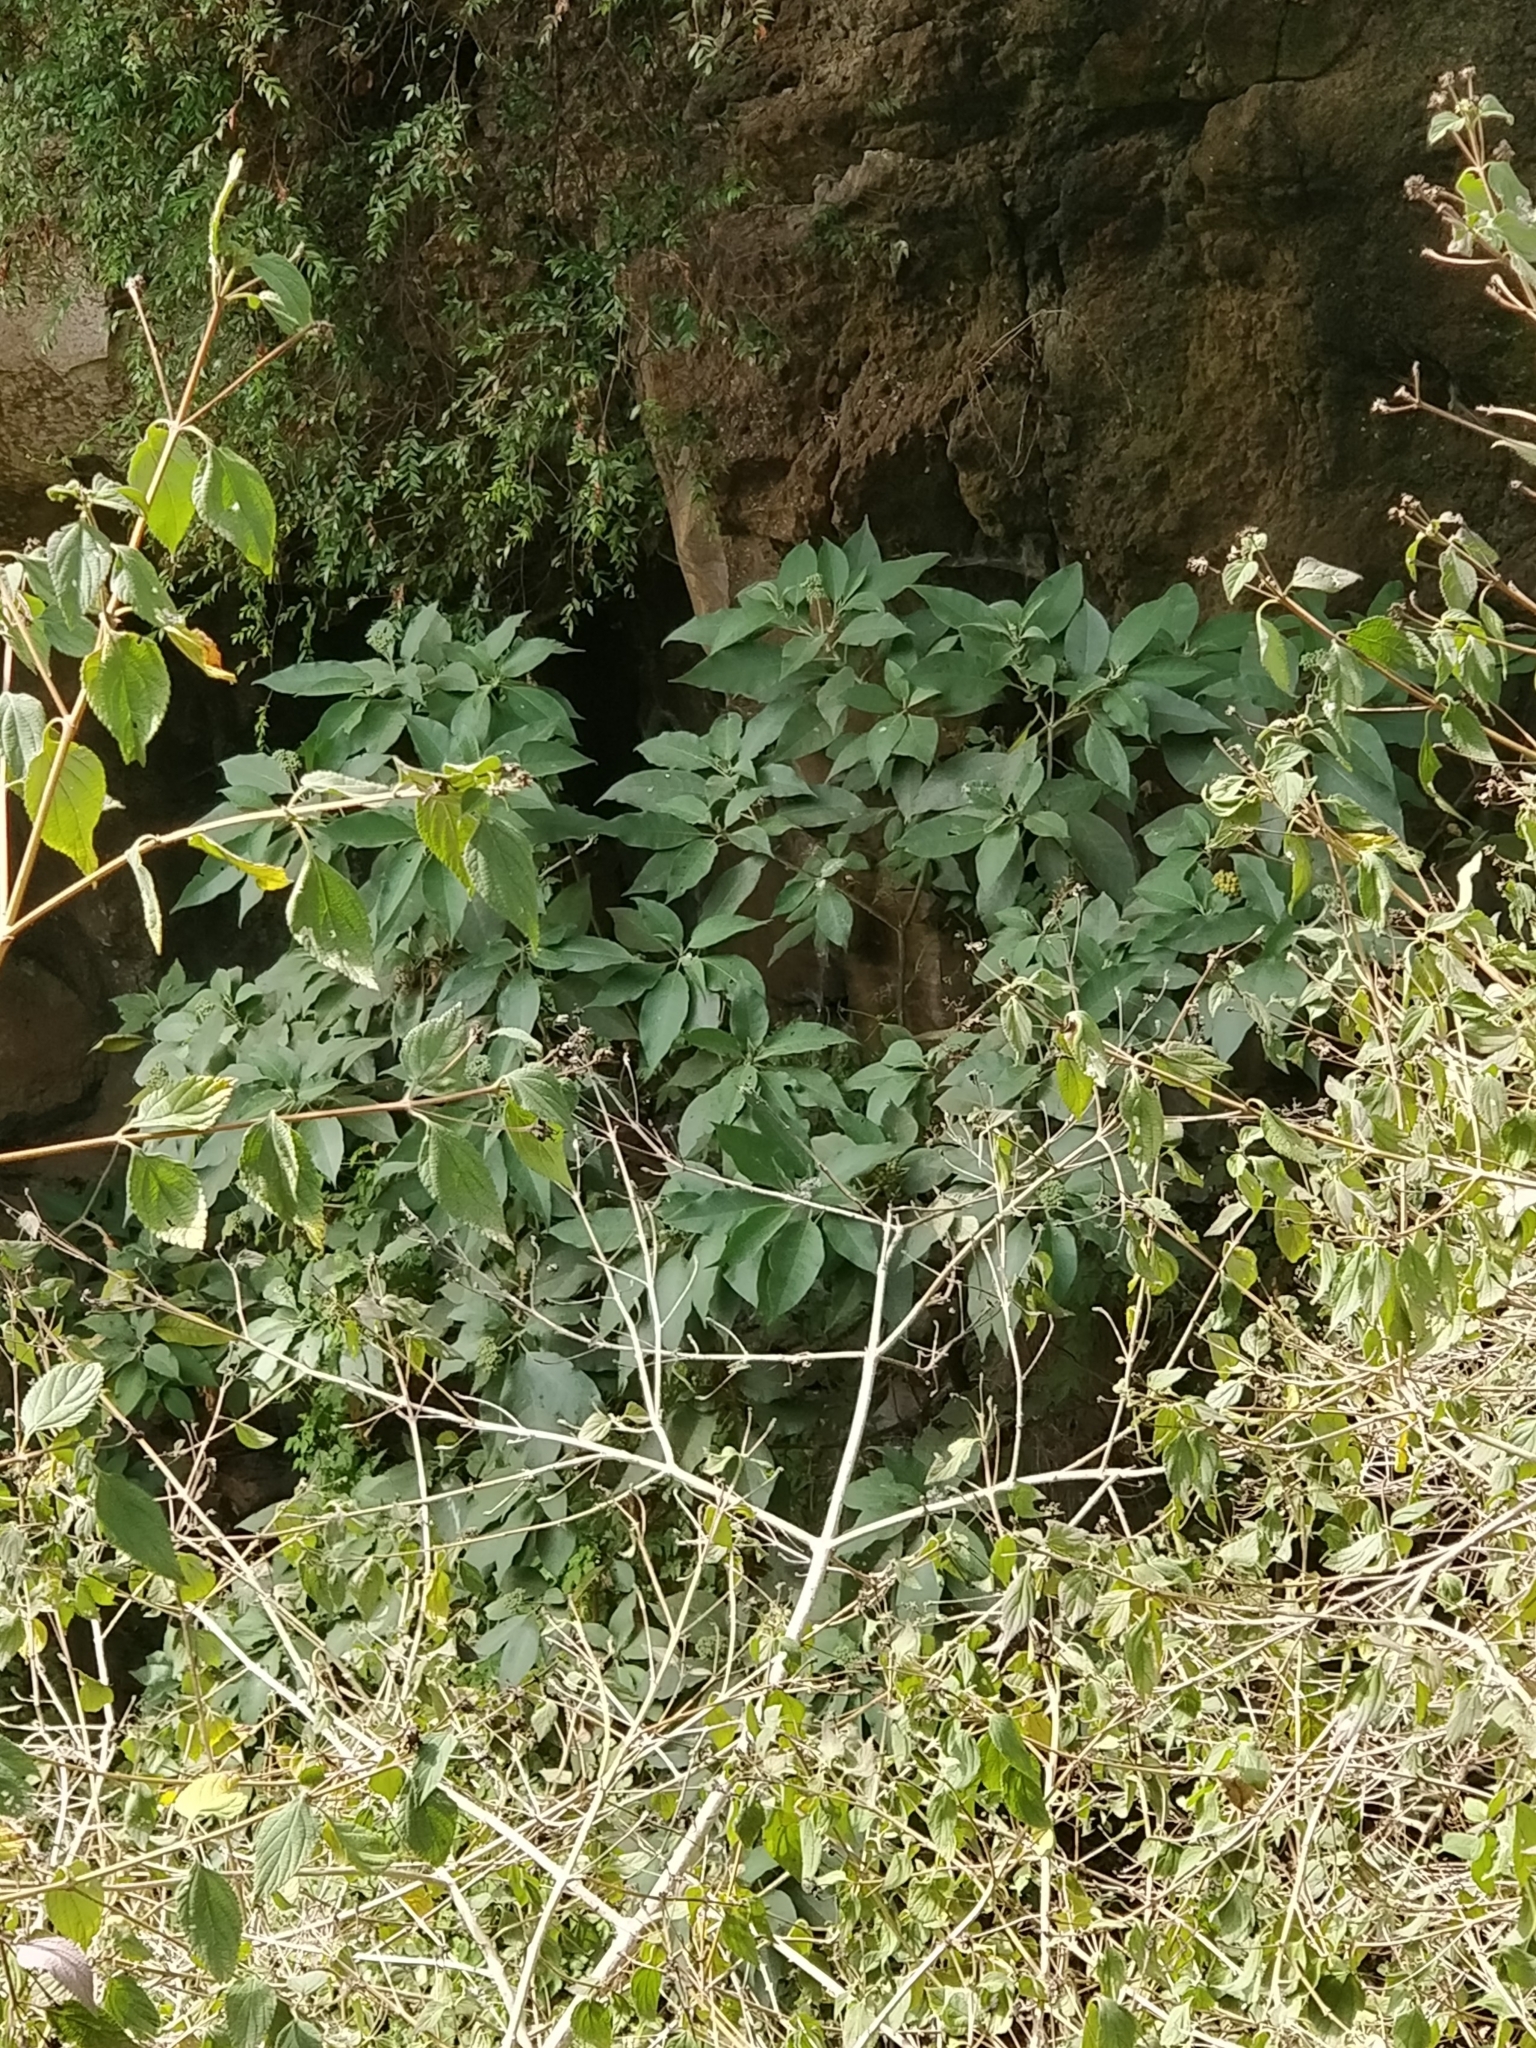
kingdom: Plantae
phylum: Tracheophyta
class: Magnoliopsida
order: Solanales
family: Solanaceae
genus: Solanum
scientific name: Solanum mauritianum
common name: Earleaf nightshade
